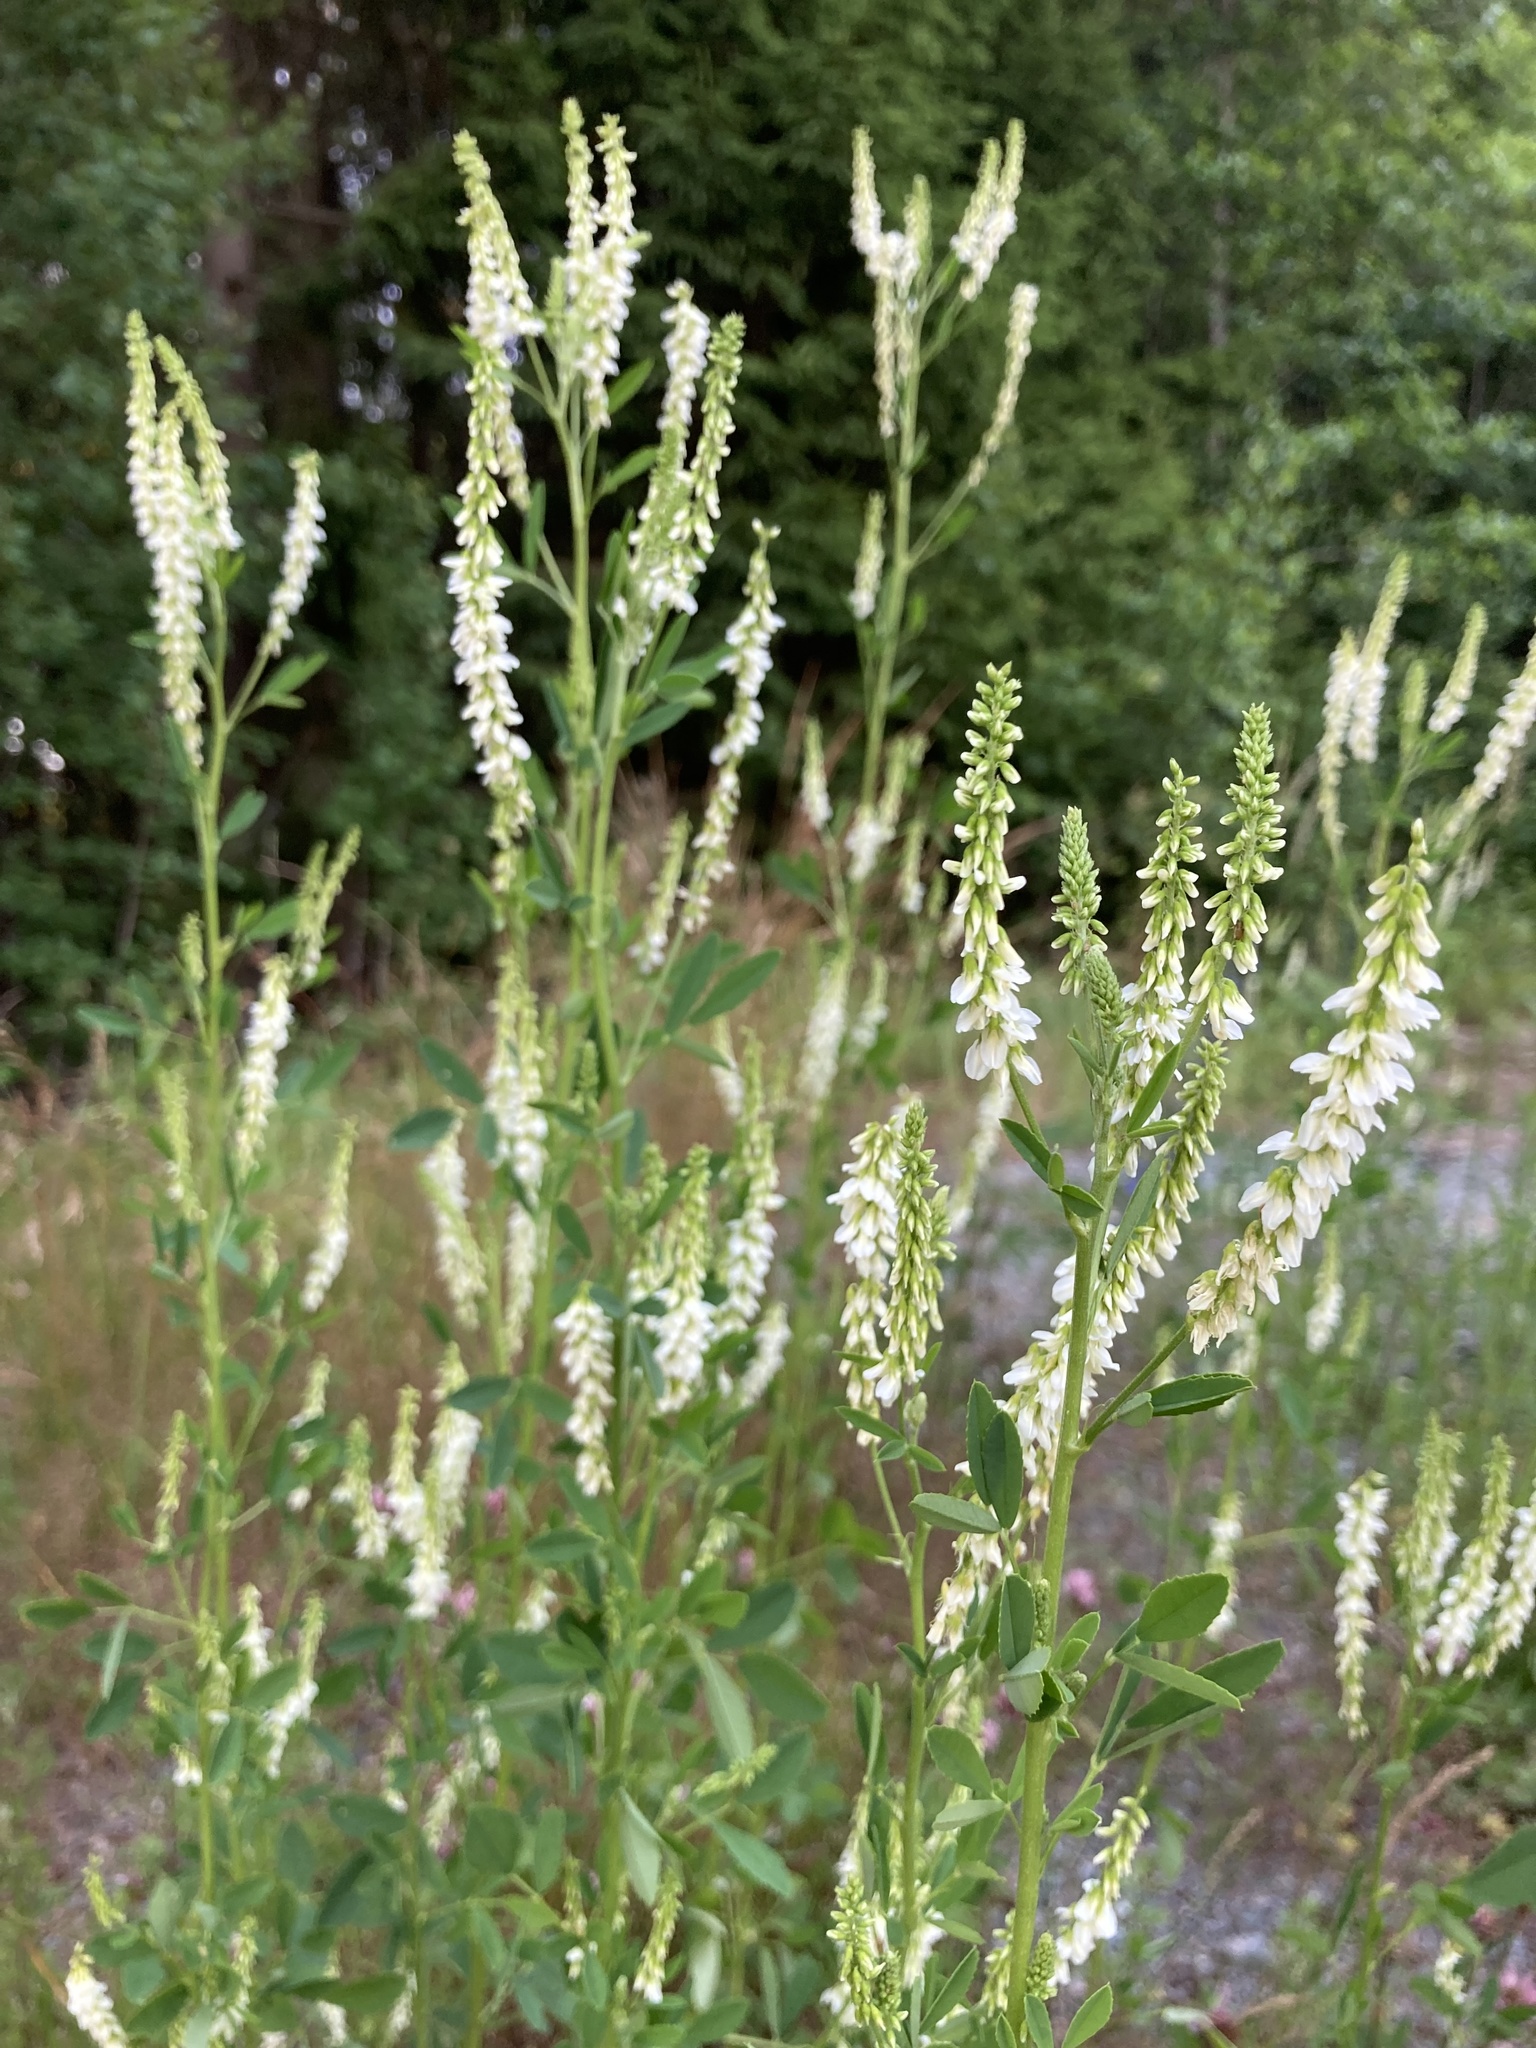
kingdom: Plantae
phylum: Tracheophyta
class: Magnoliopsida
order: Fabales
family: Fabaceae
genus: Melilotus
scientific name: Melilotus albus
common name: White melilot
